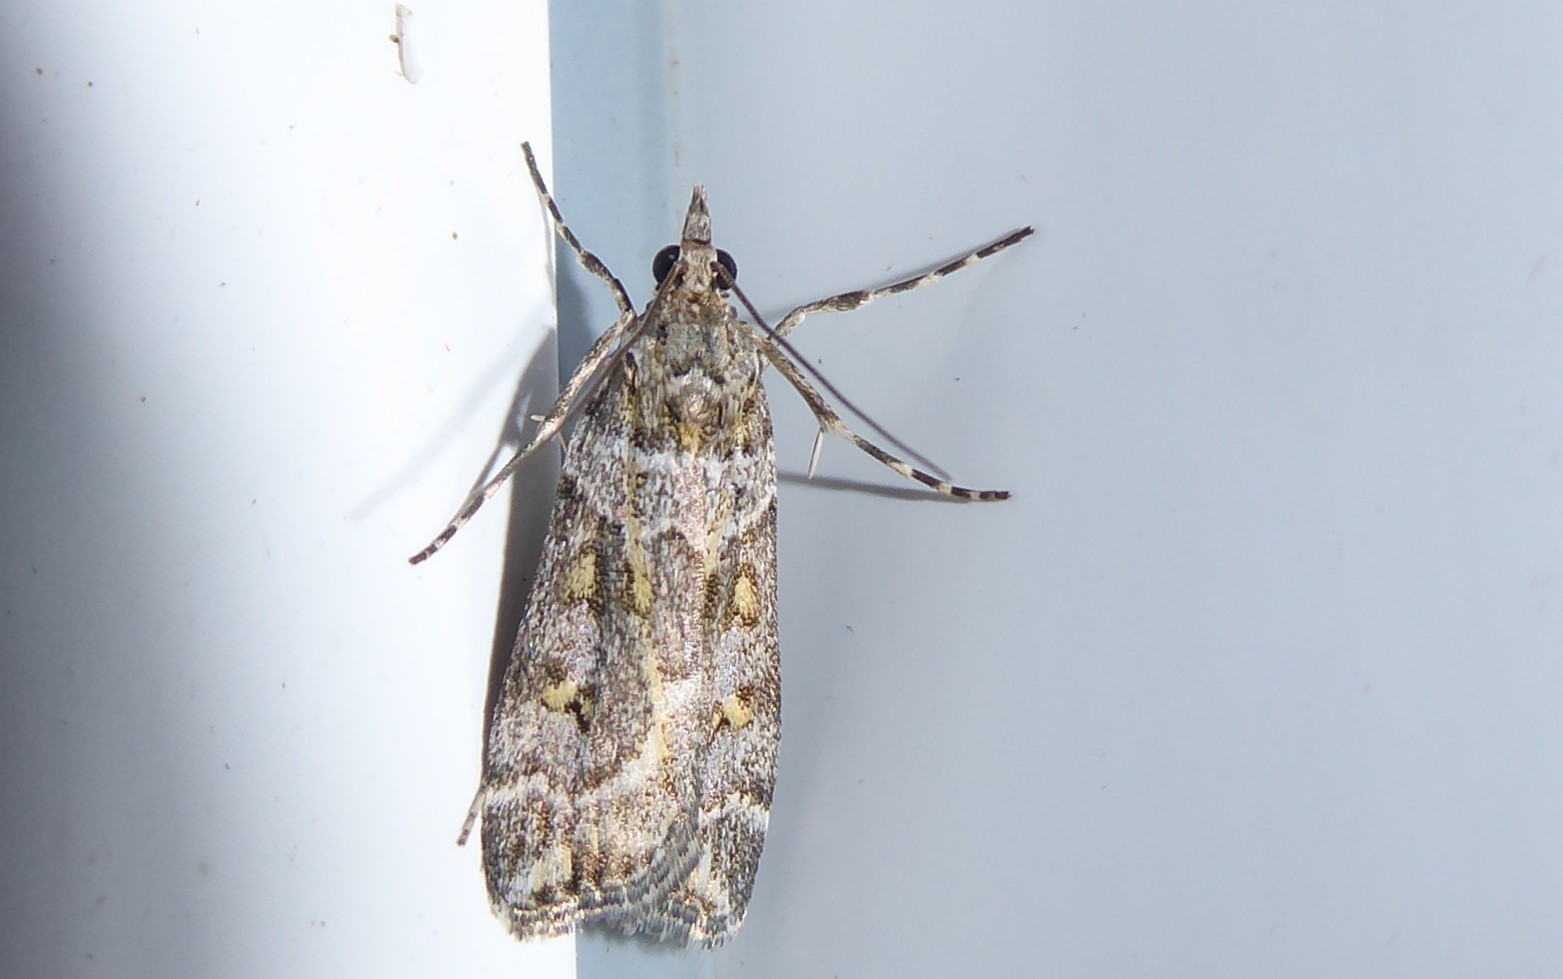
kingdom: Animalia
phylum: Arthropoda
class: Insecta
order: Lepidoptera
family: Crambidae
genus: Eudonia
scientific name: Eudonia diphtheralis
